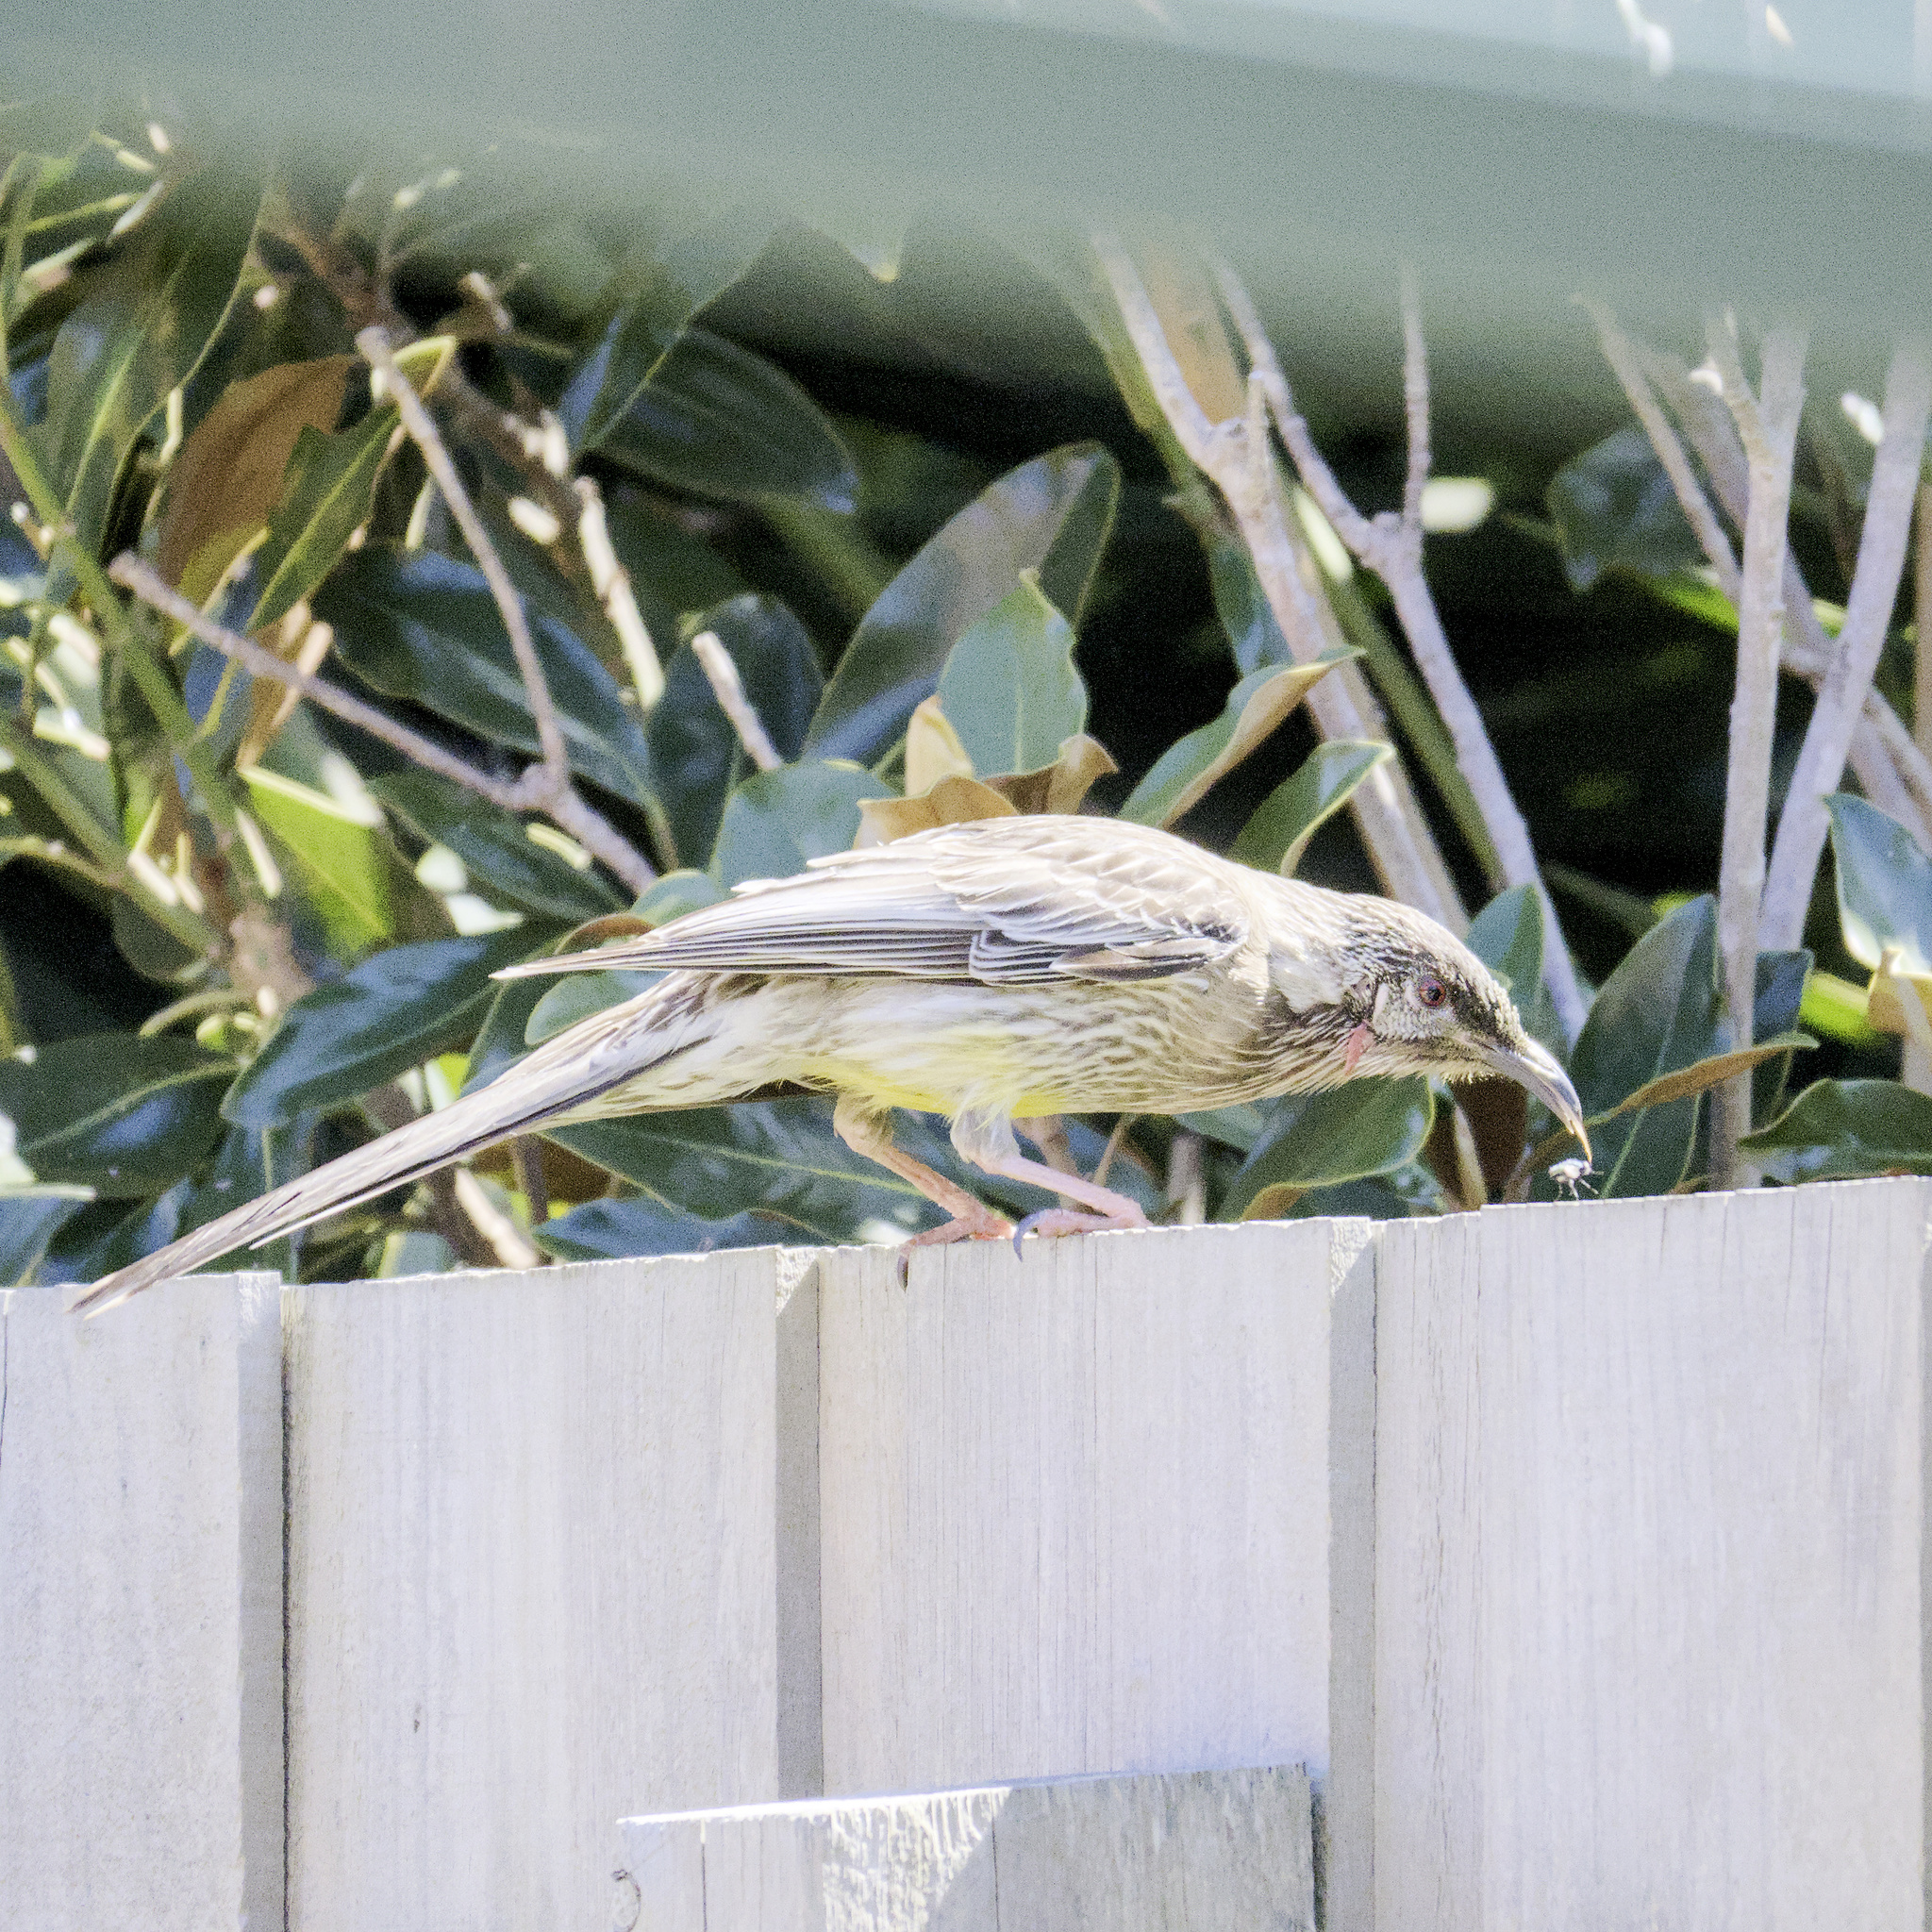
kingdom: Animalia
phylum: Chordata
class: Aves
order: Passeriformes
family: Meliphagidae
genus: Anthochaera
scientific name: Anthochaera carunculata
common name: Red wattlebird
